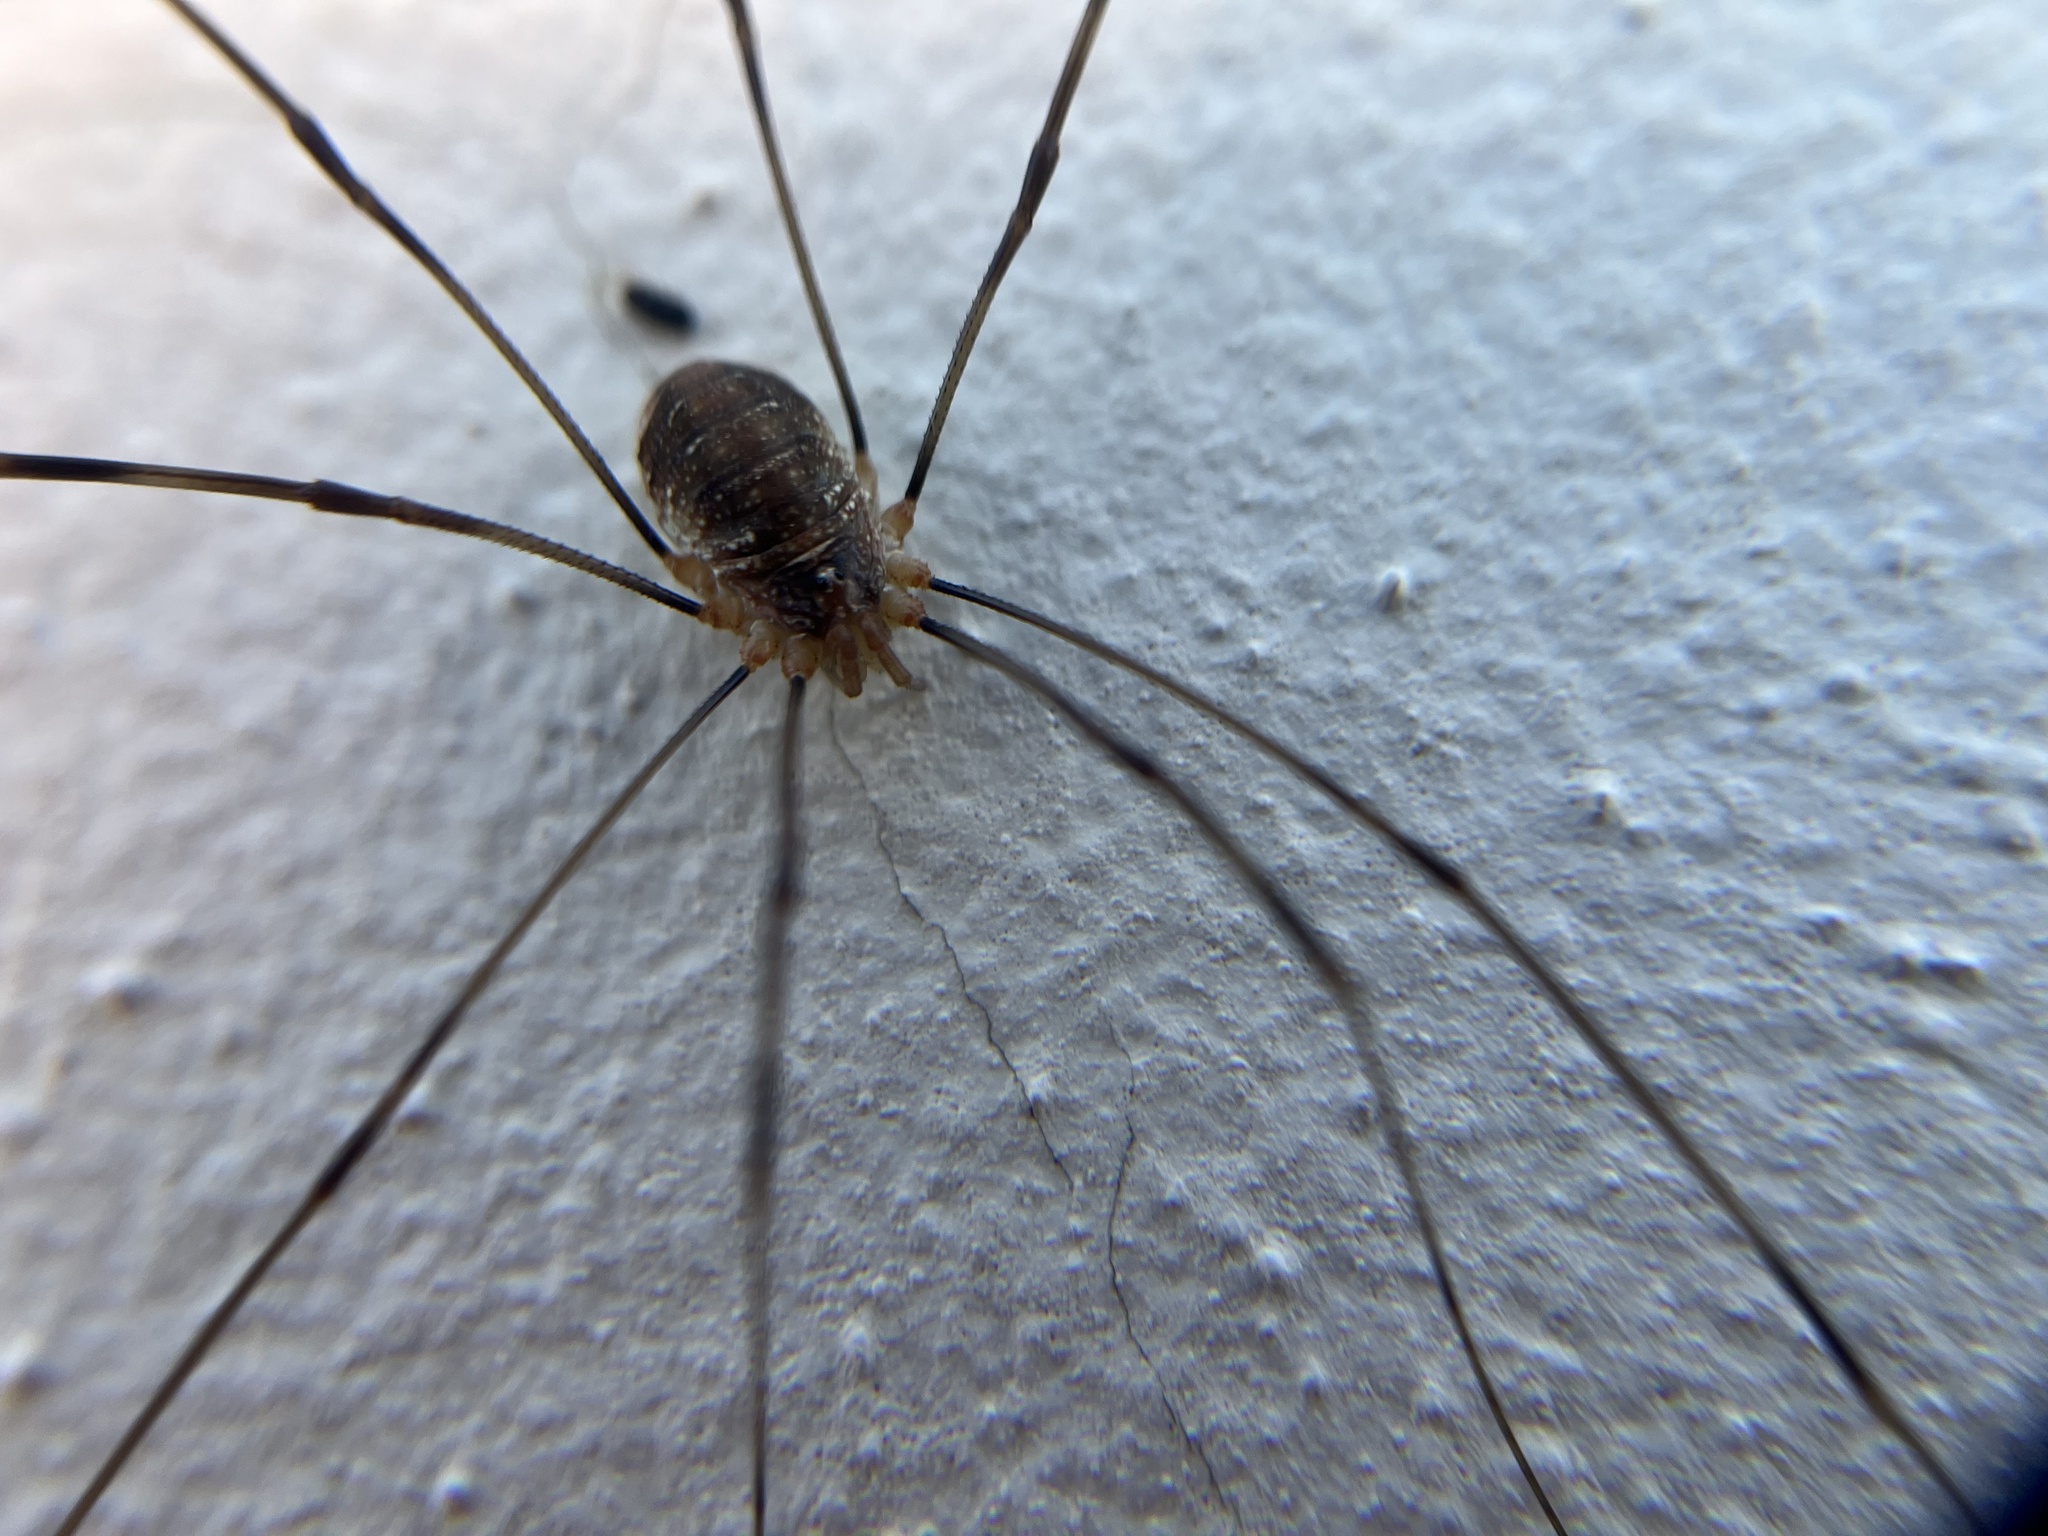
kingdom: Animalia
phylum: Arthropoda
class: Arachnida
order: Opiliones
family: Phalangiidae
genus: Opilio
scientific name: Opilio canestrinii
